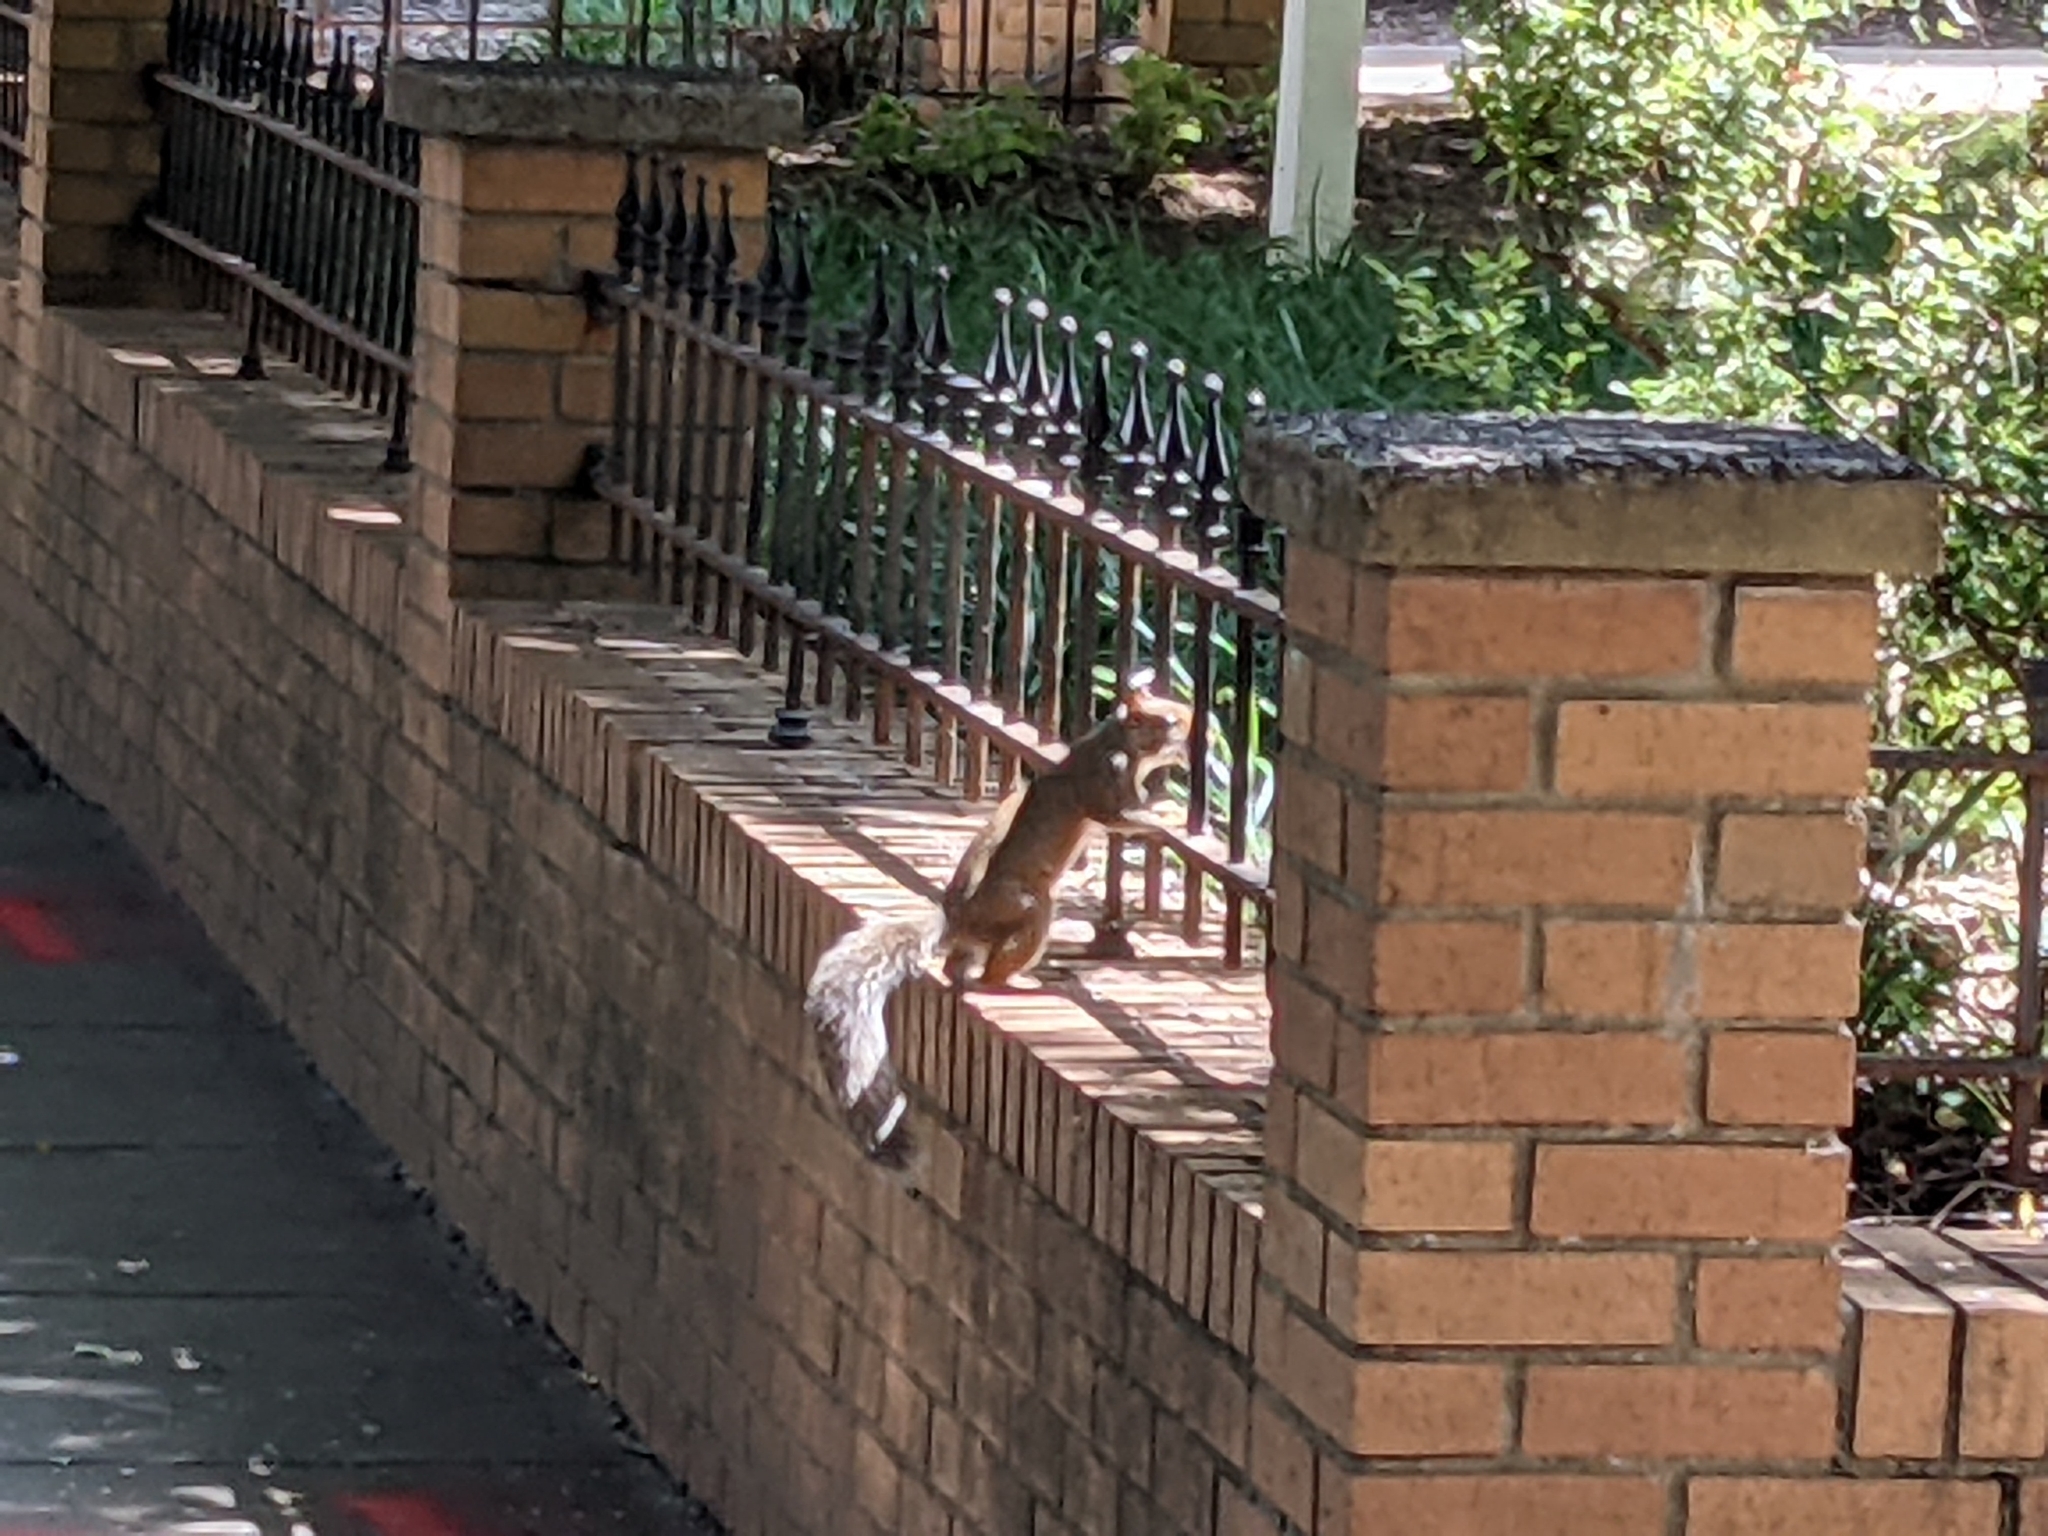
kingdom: Animalia
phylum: Chordata
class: Mammalia
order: Rodentia
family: Sciuridae
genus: Sciurus
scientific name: Sciurus carolinensis
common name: Eastern gray squirrel
